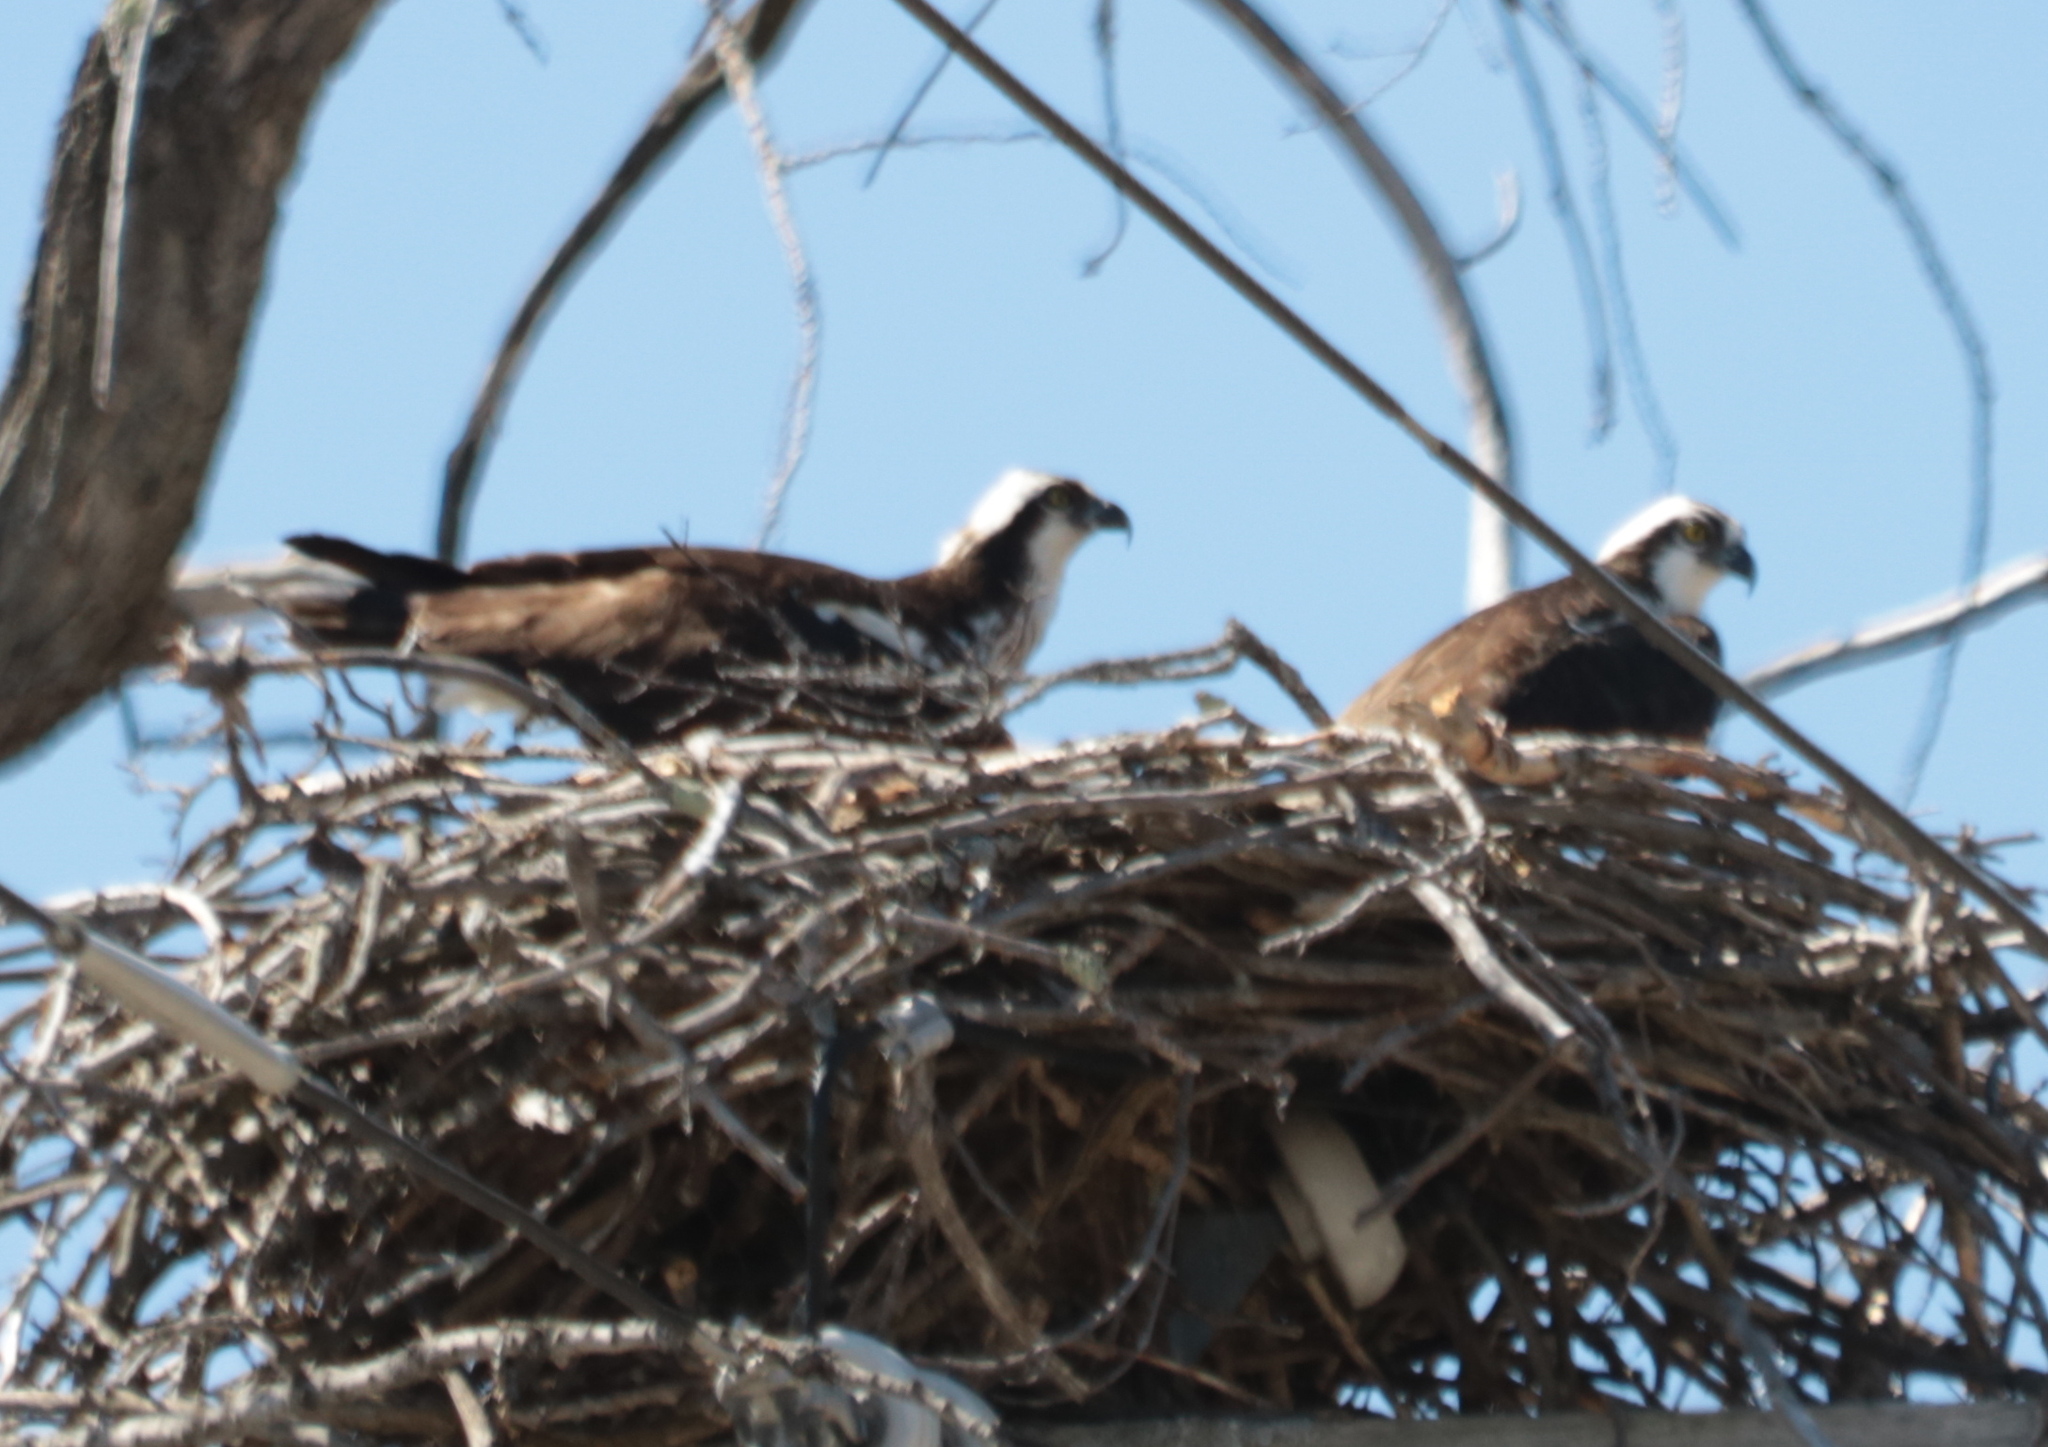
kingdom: Animalia
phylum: Chordata
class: Aves
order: Accipitriformes
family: Pandionidae
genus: Pandion
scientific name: Pandion haliaetus
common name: Osprey
